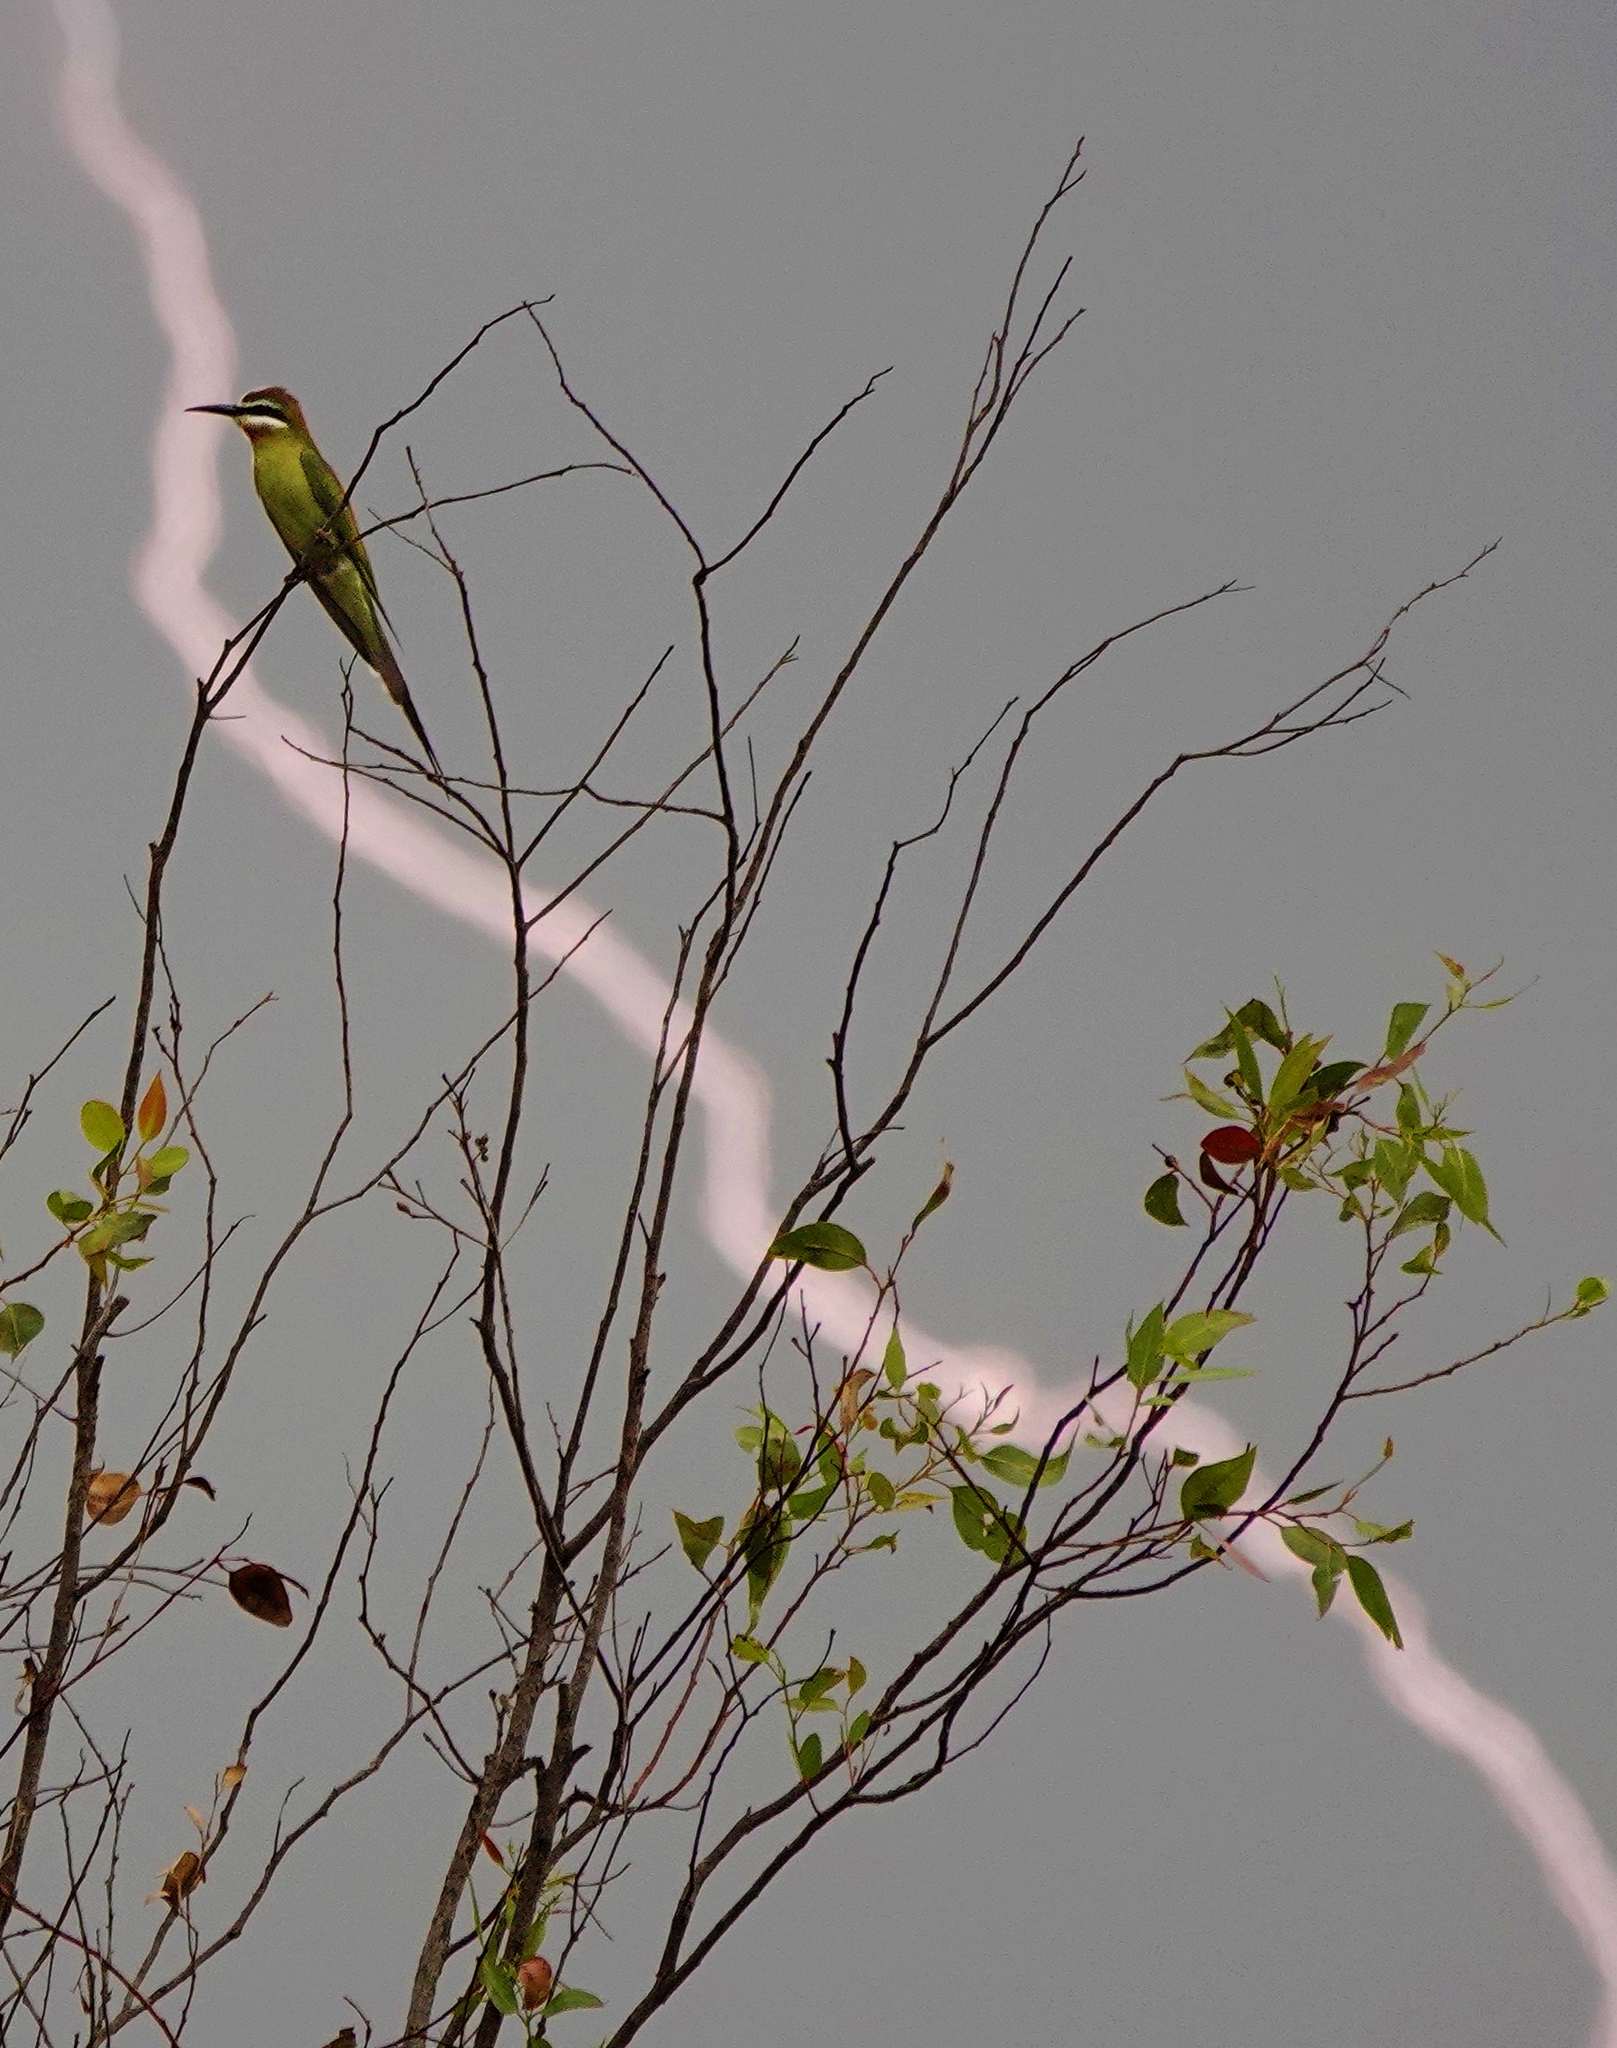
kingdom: Animalia
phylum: Chordata
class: Aves
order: Coraciiformes
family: Meropidae
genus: Merops
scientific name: Merops superciliosus
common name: Olive bee-eater
